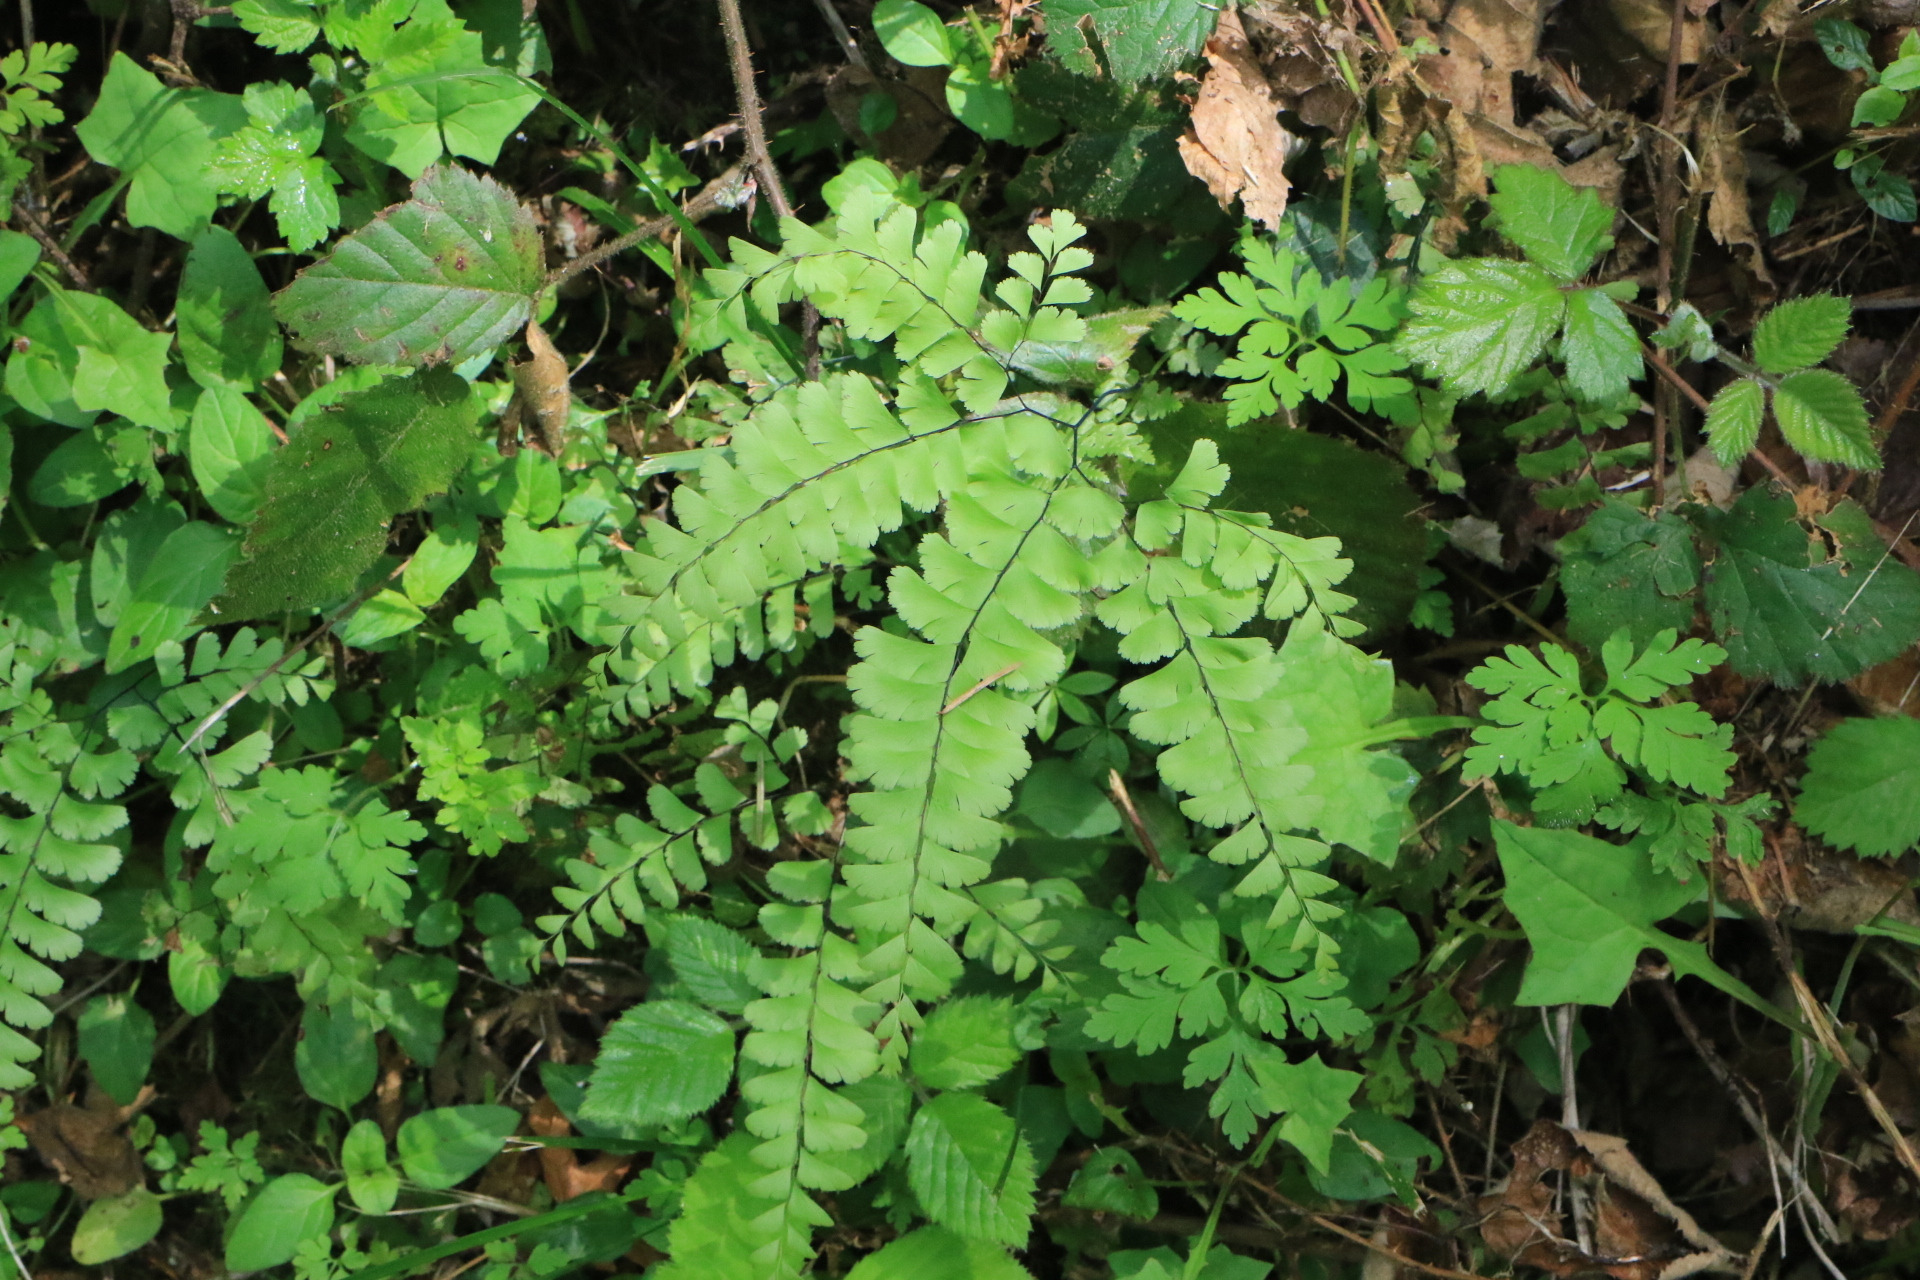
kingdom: Plantae
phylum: Tracheophyta
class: Polypodiopsida
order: Polypodiales
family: Pteridaceae
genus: Adiantum
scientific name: Adiantum aleuticum
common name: Aleutian maidenhair fern
